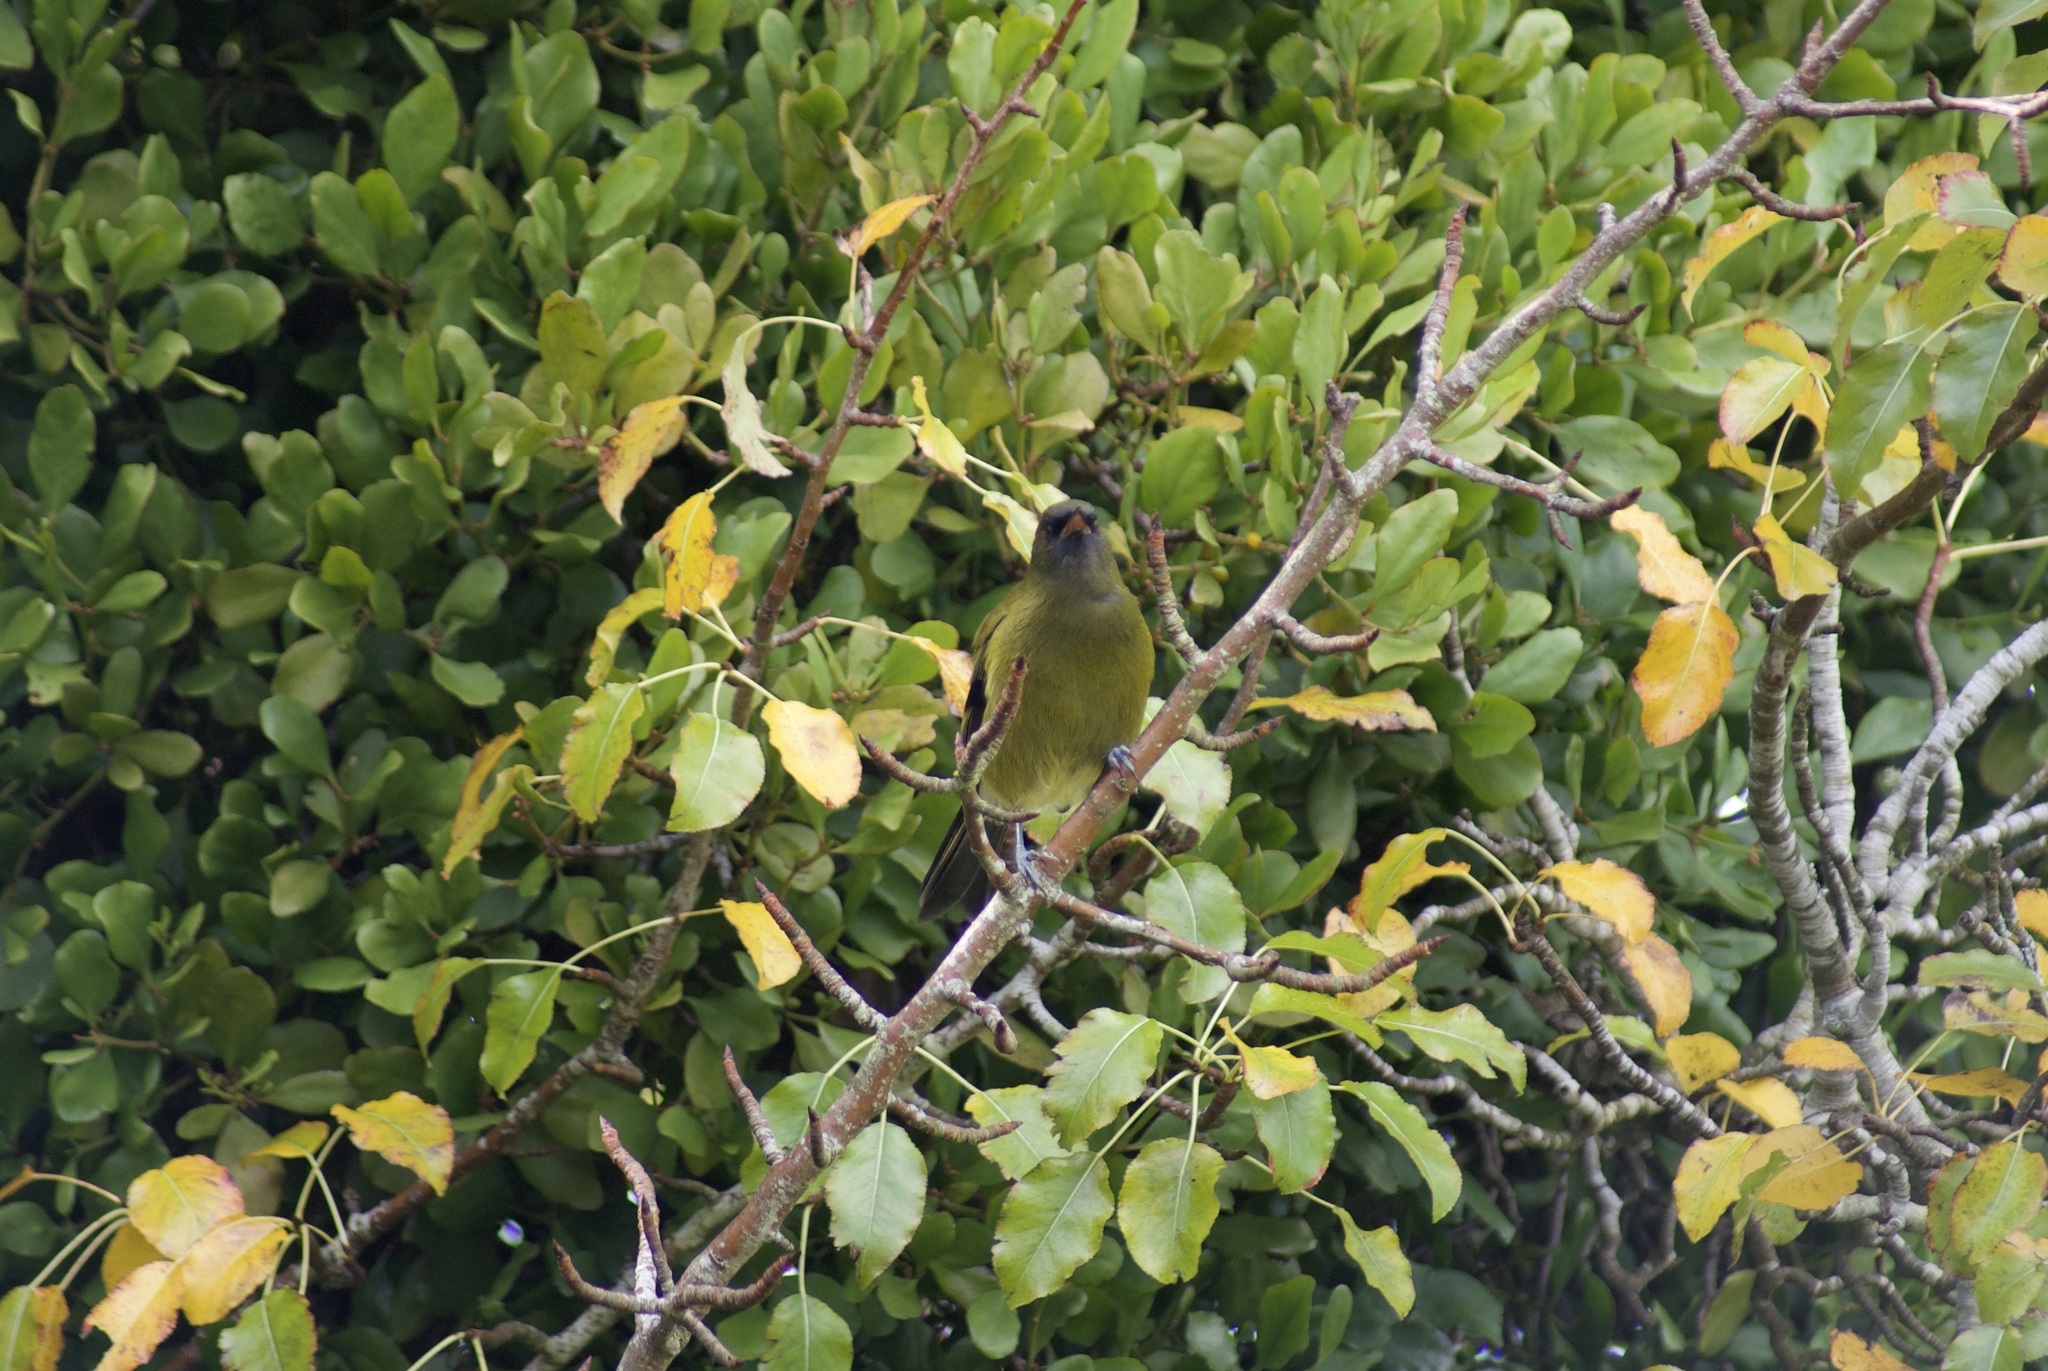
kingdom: Animalia
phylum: Chordata
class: Aves
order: Passeriformes
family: Meliphagidae
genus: Anthornis
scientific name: Anthornis melanura
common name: New zealand bellbird
